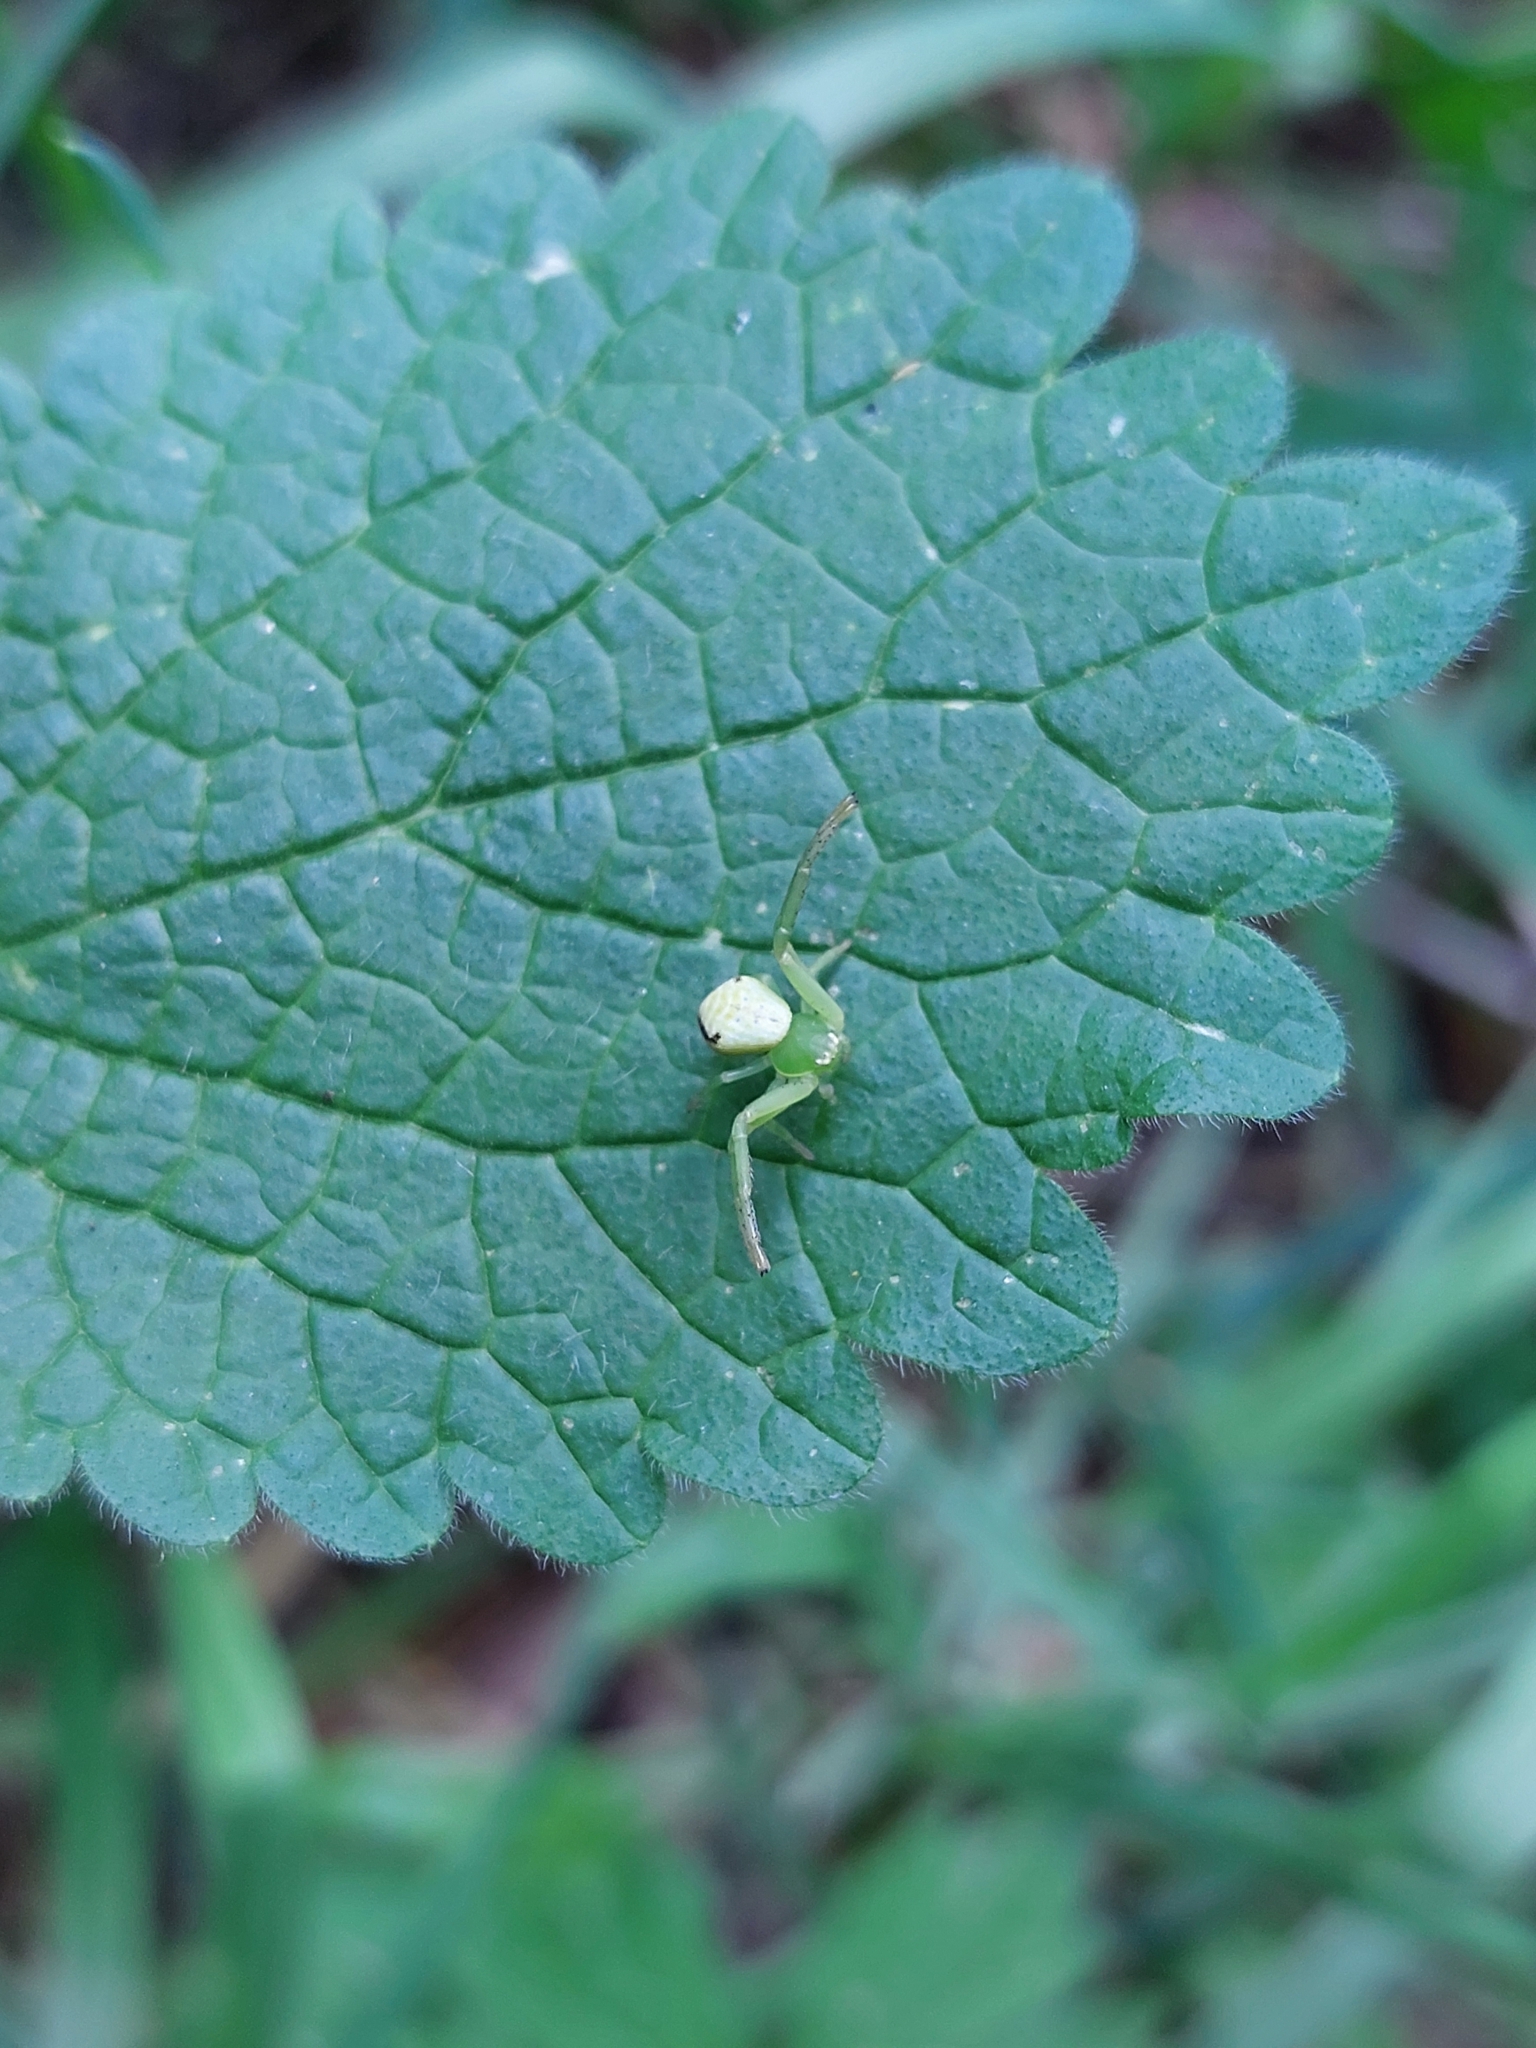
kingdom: Animalia
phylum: Arthropoda
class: Arachnida
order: Araneae
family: Thomisidae
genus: Ebrechtella
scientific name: Ebrechtella tricuspidata
